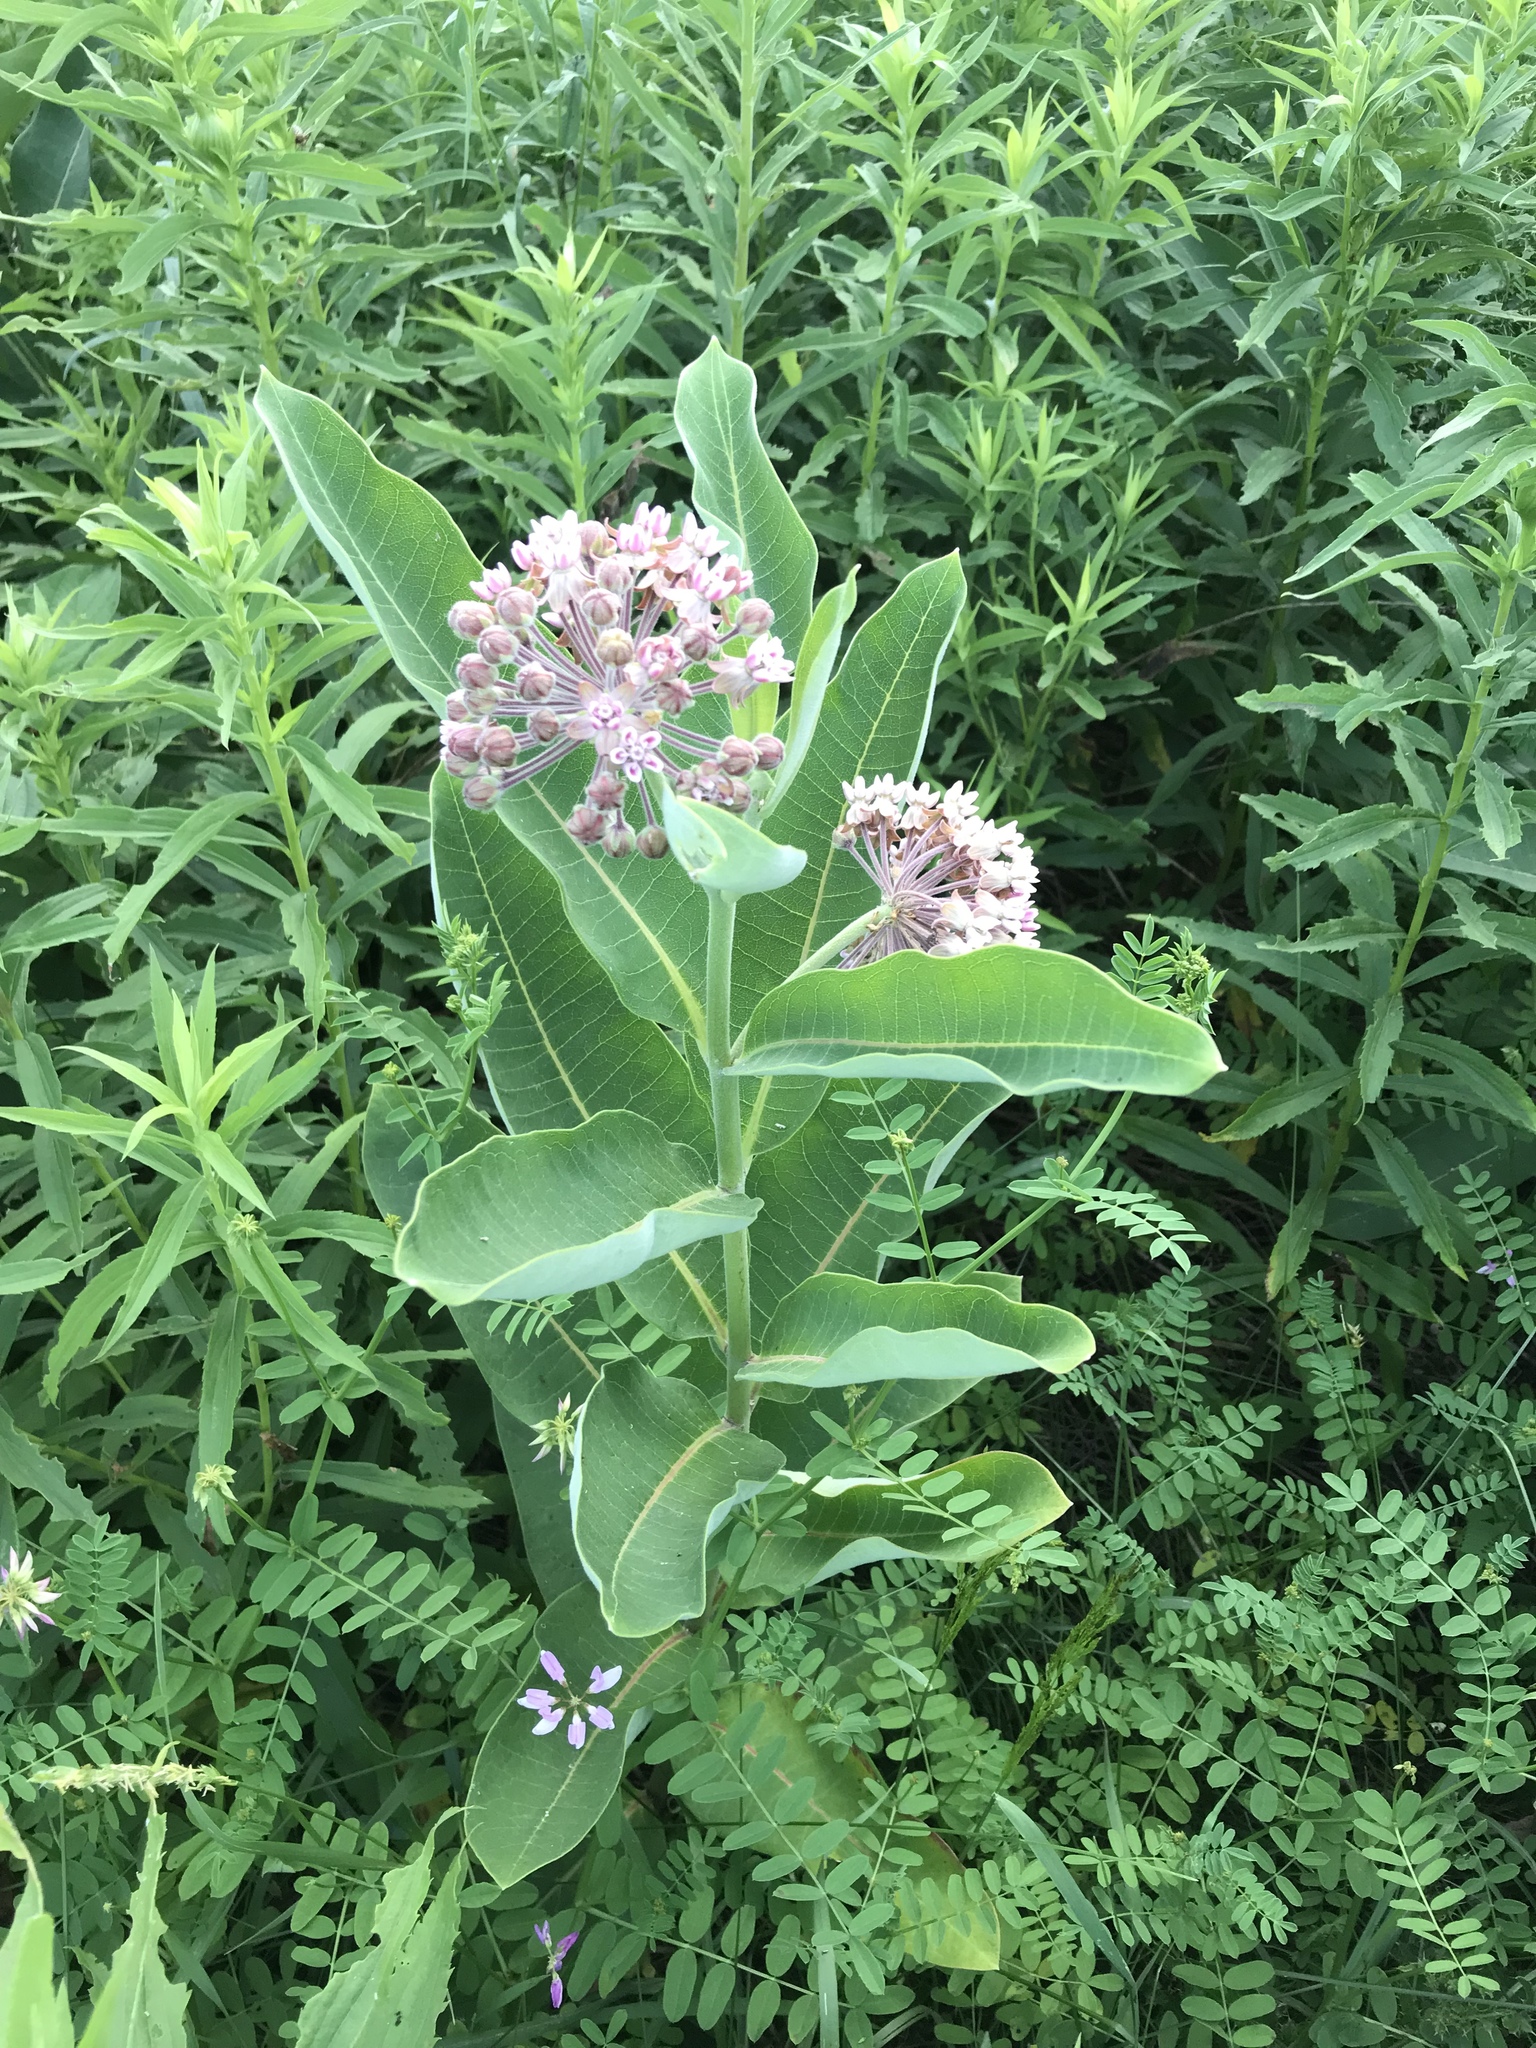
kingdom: Plantae
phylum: Tracheophyta
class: Magnoliopsida
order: Gentianales
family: Apocynaceae
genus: Asclepias
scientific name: Asclepias syriaca
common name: Common milkweed
